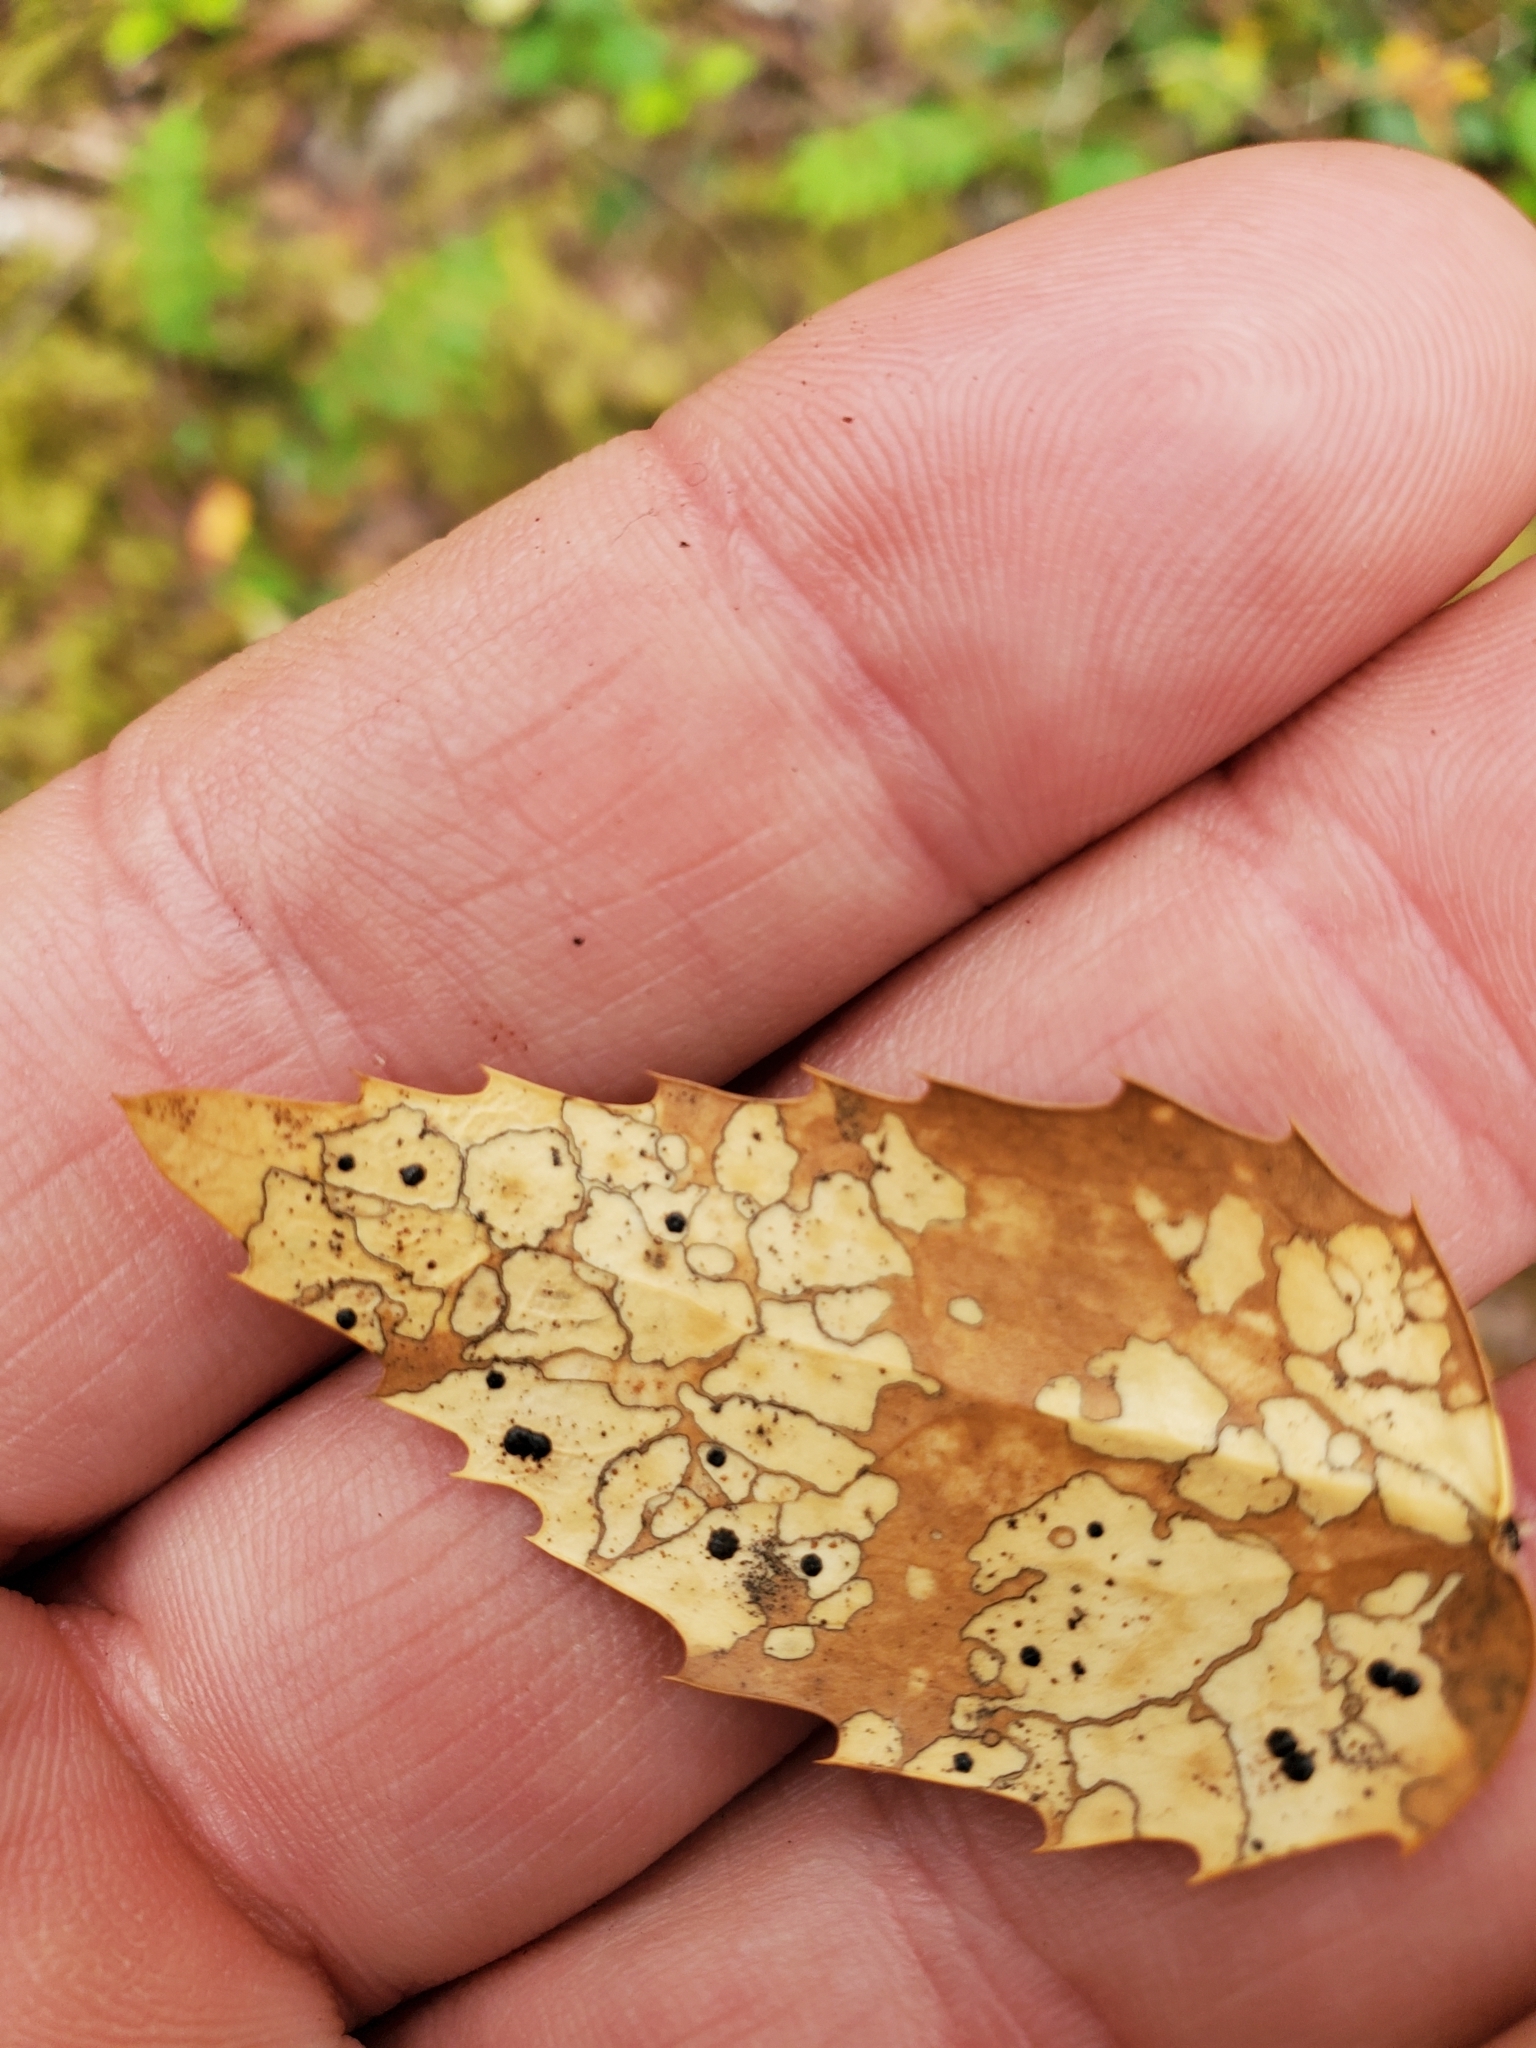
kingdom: Fungi
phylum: Ascomycota
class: Leotiomycetes
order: Rhytismatales
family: Rhytismataceae
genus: Coccomyces
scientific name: Coccomyces dentatus
